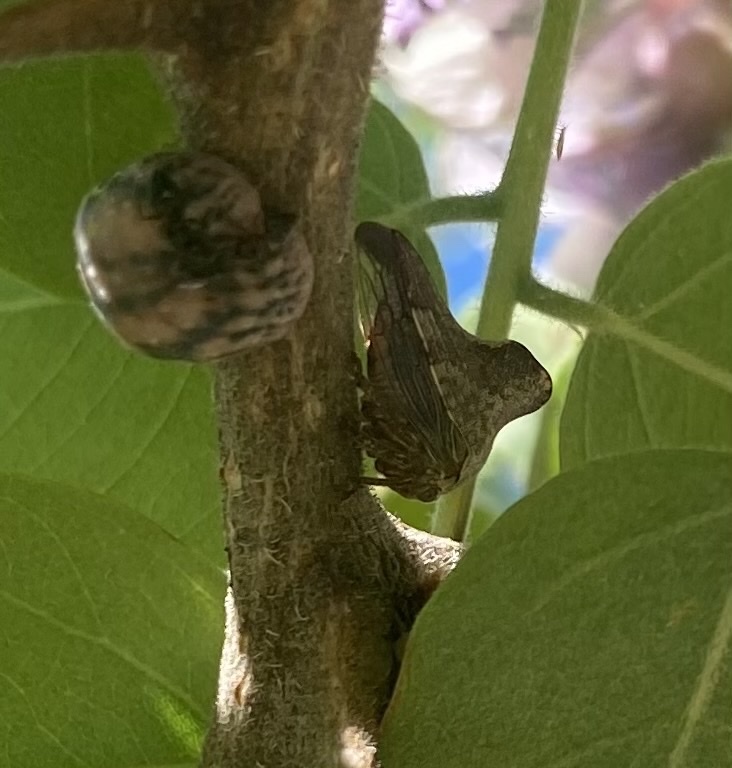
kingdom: Animalia
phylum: Arthropoda
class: Insecta
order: Hemiptera
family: Membracidae
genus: Telamona
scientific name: Telamona gibbera
